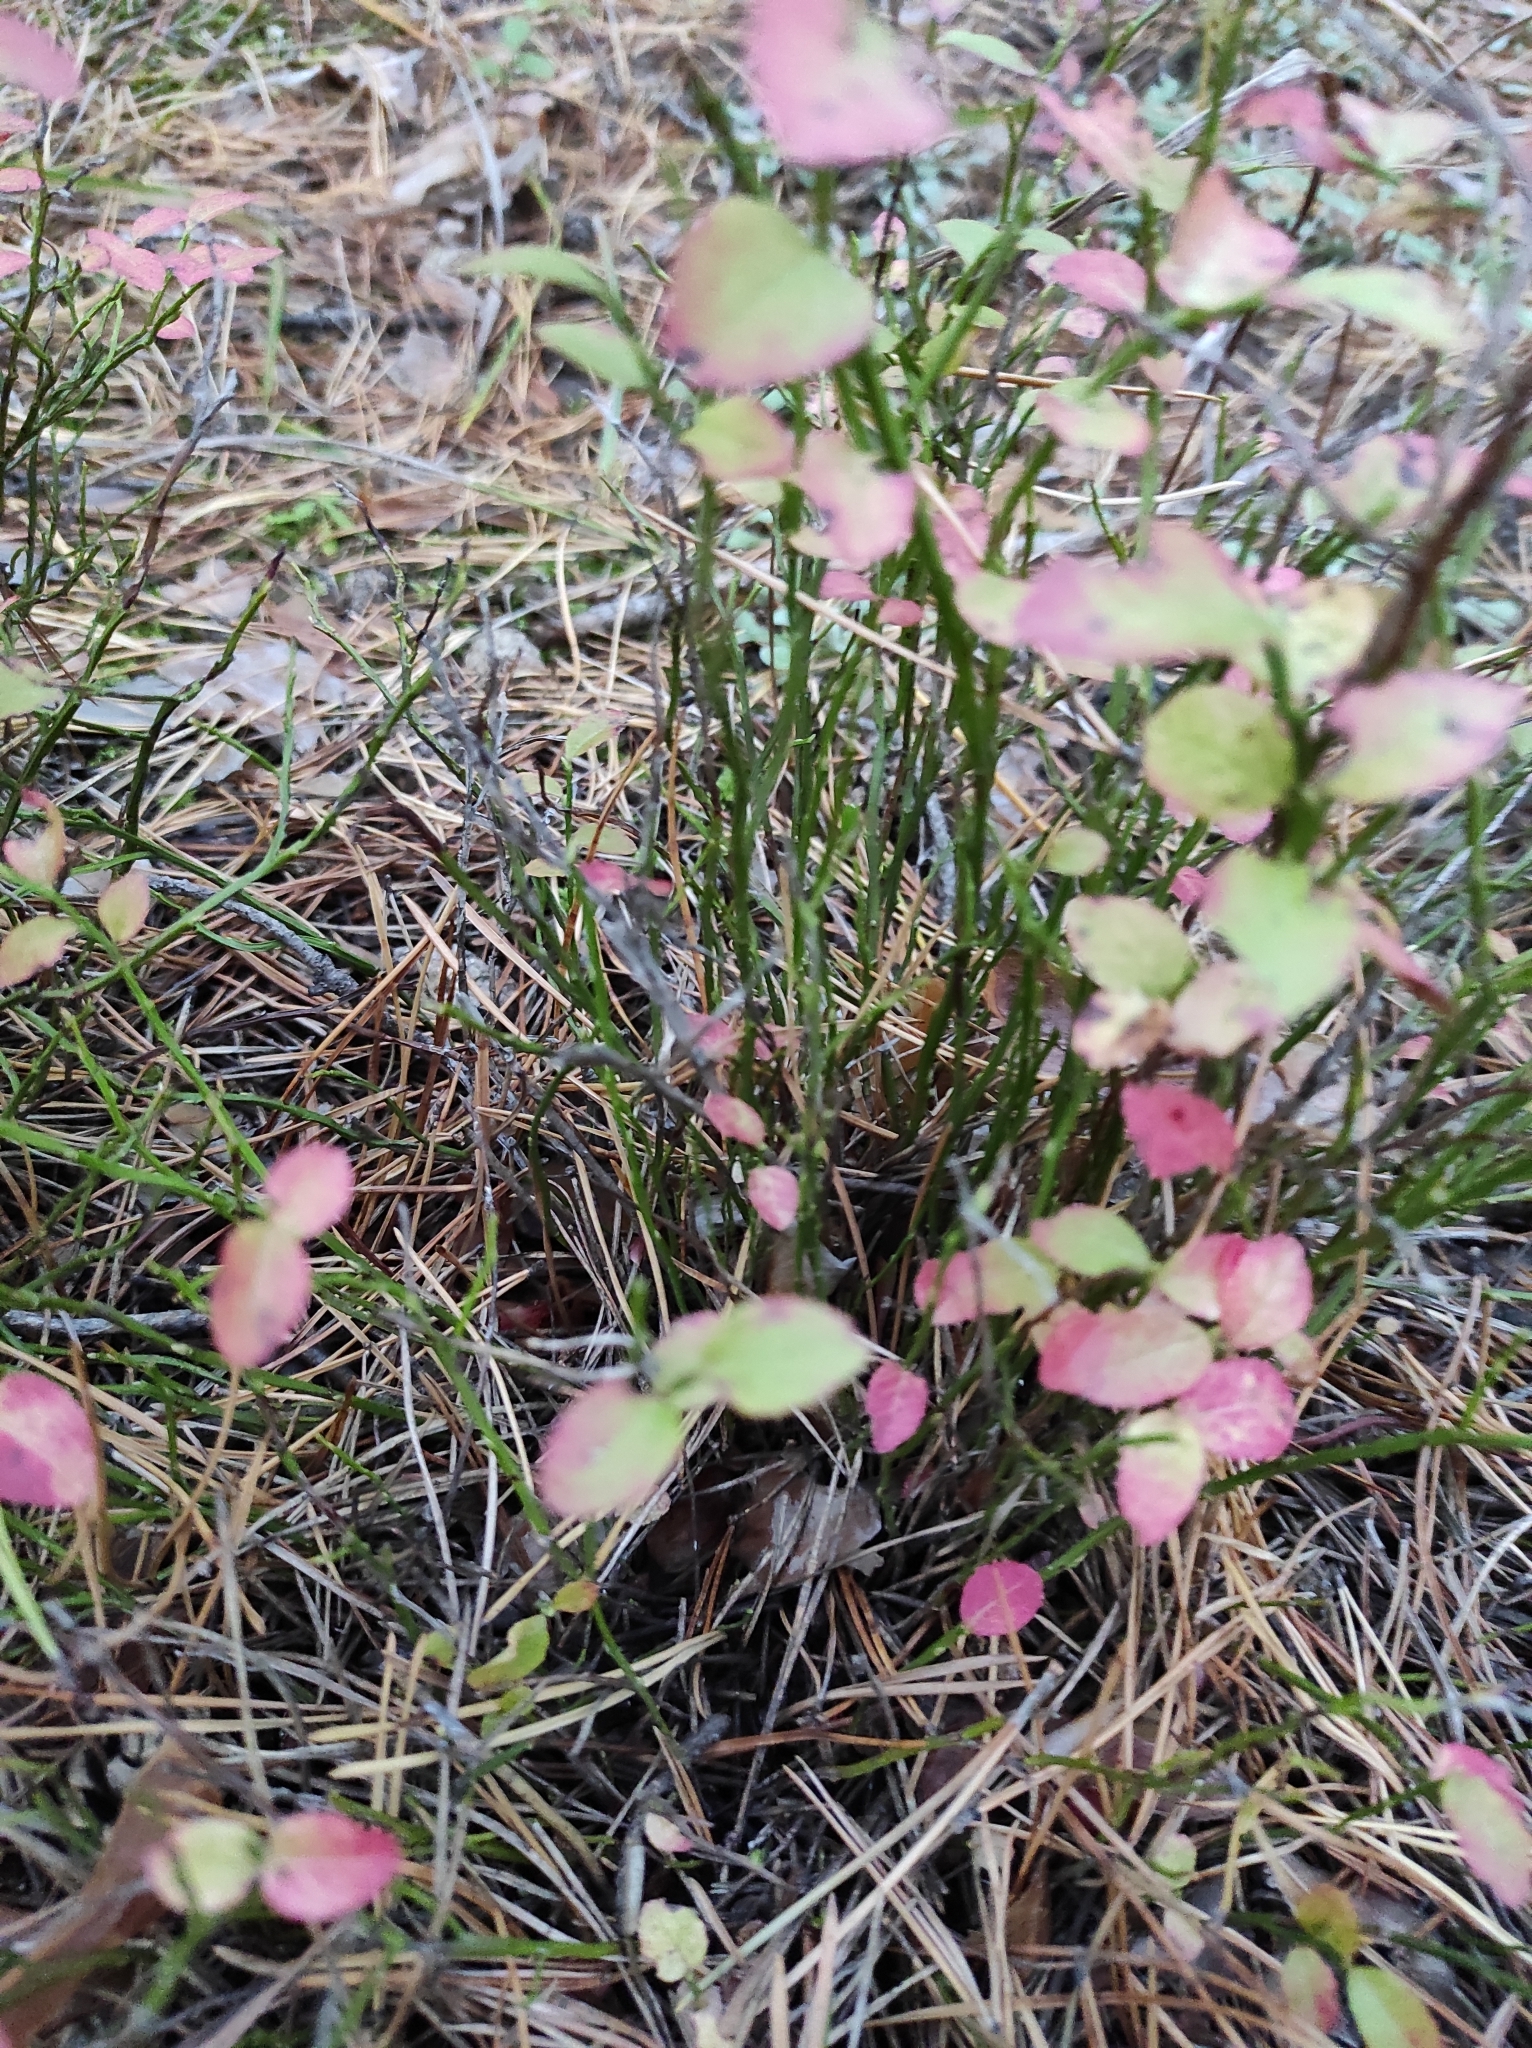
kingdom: Plantae
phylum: Tracheophyta
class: Magnoliopsida
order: Ericales
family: Ericaceae
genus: Vaccinium
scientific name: Vaccinium myrtillus
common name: Bilberry
